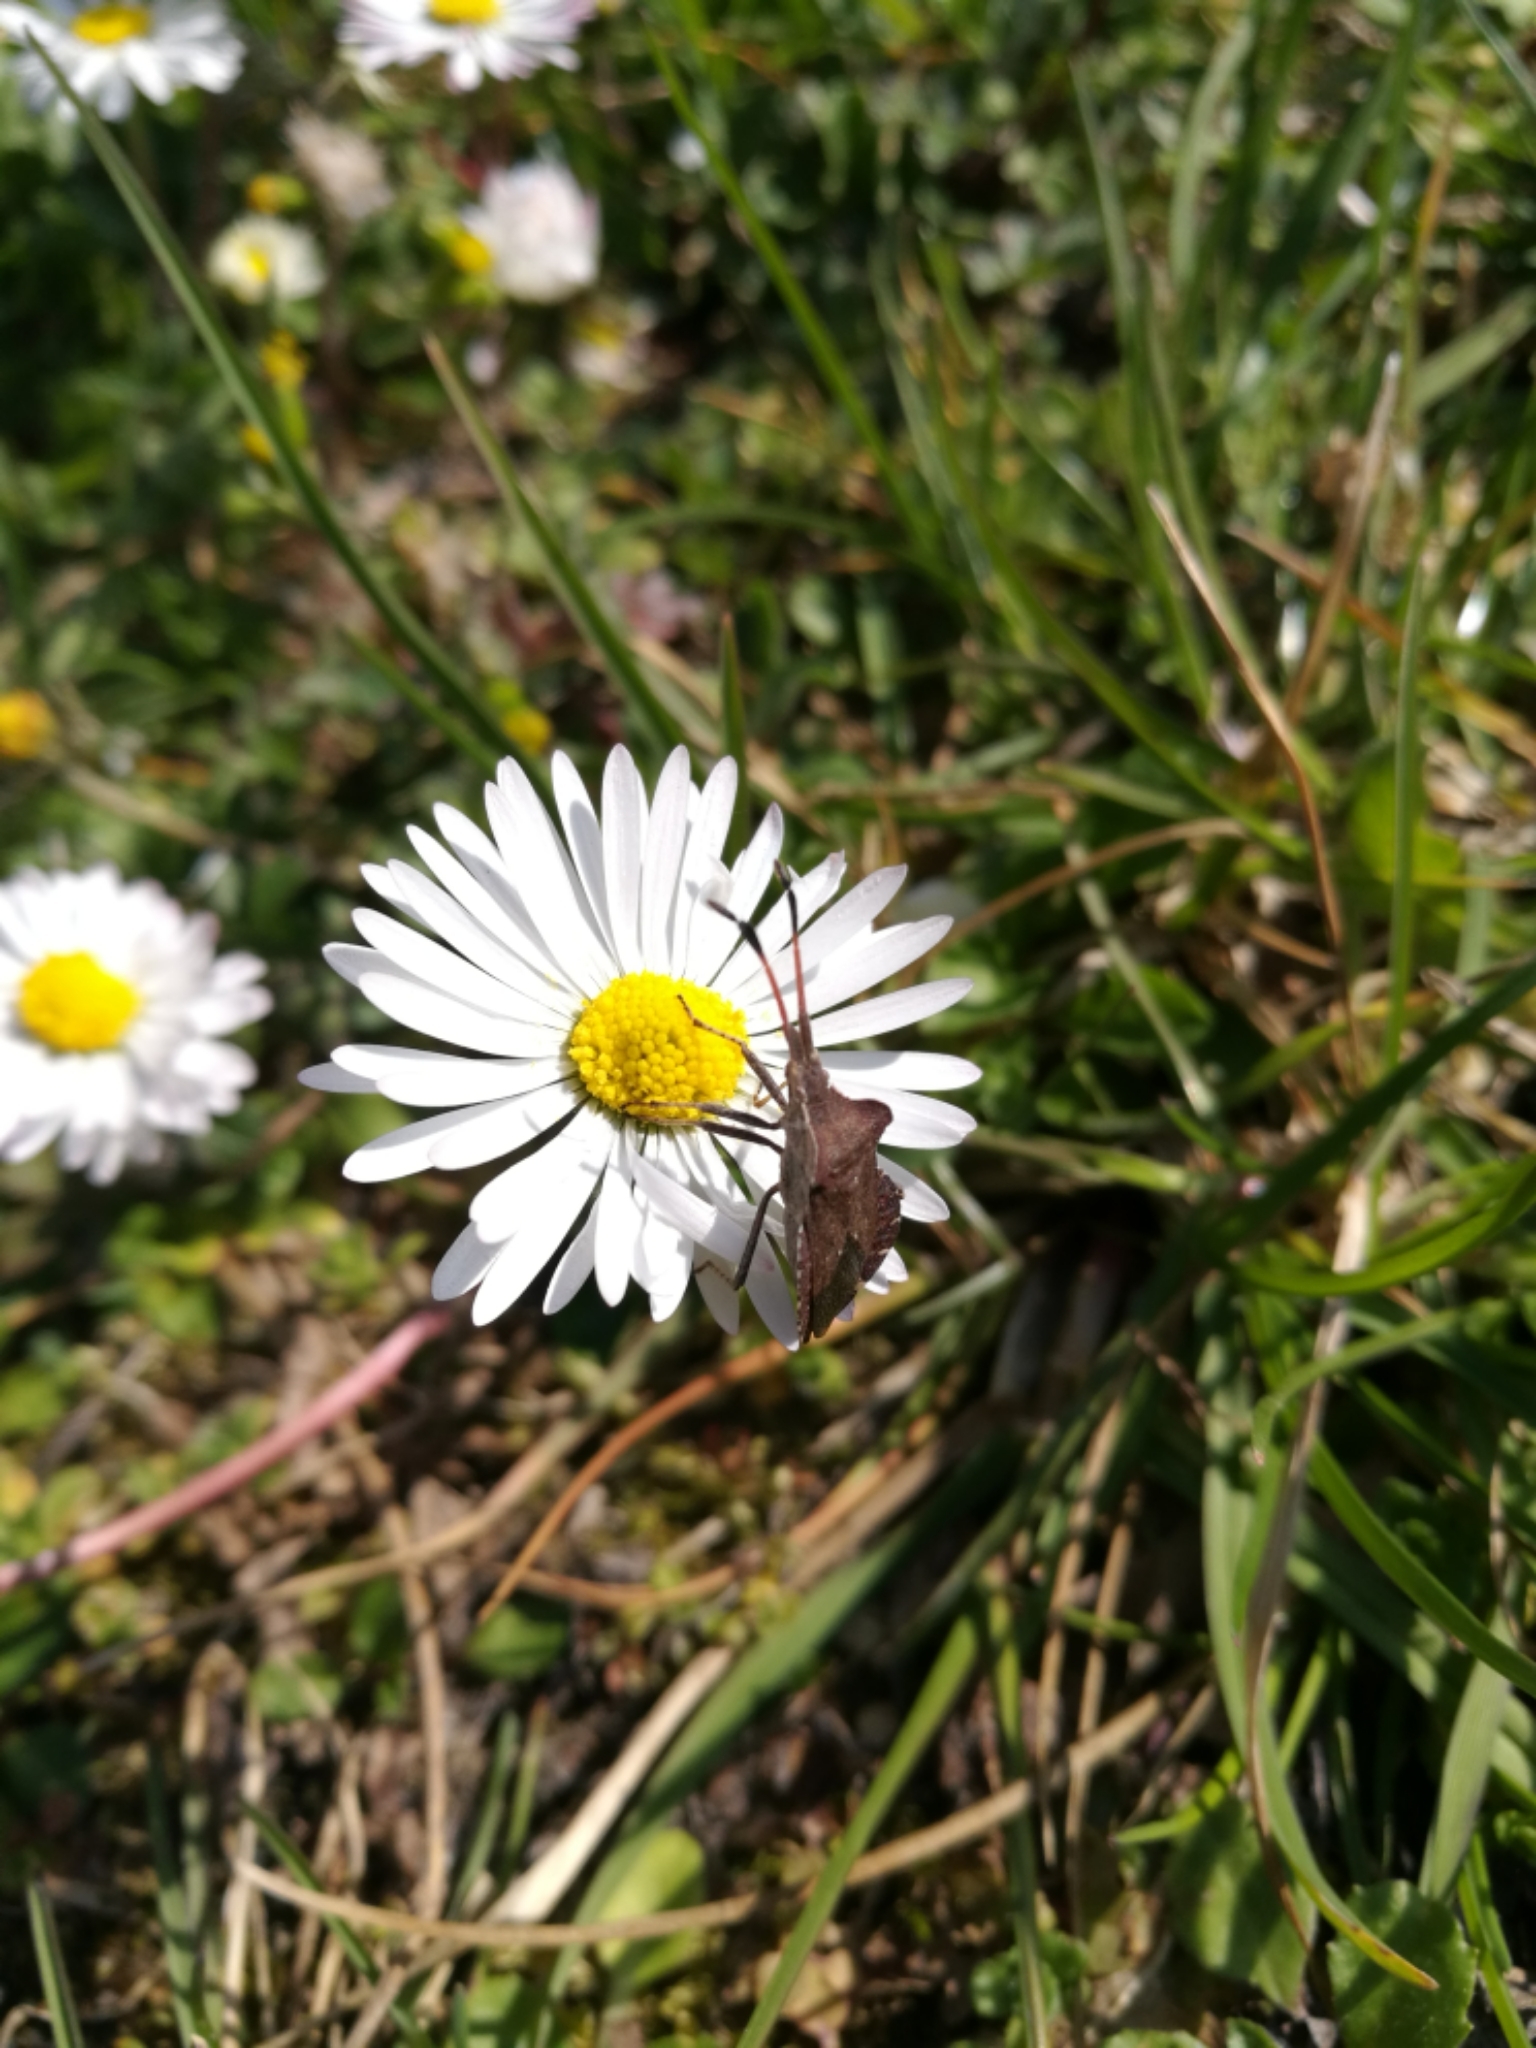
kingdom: Plantae
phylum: Tracheophyta
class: Magnoliopsida
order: Asterales
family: Asteraceae
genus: Bellis
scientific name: Bellis perennis
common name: Lawndaisy
